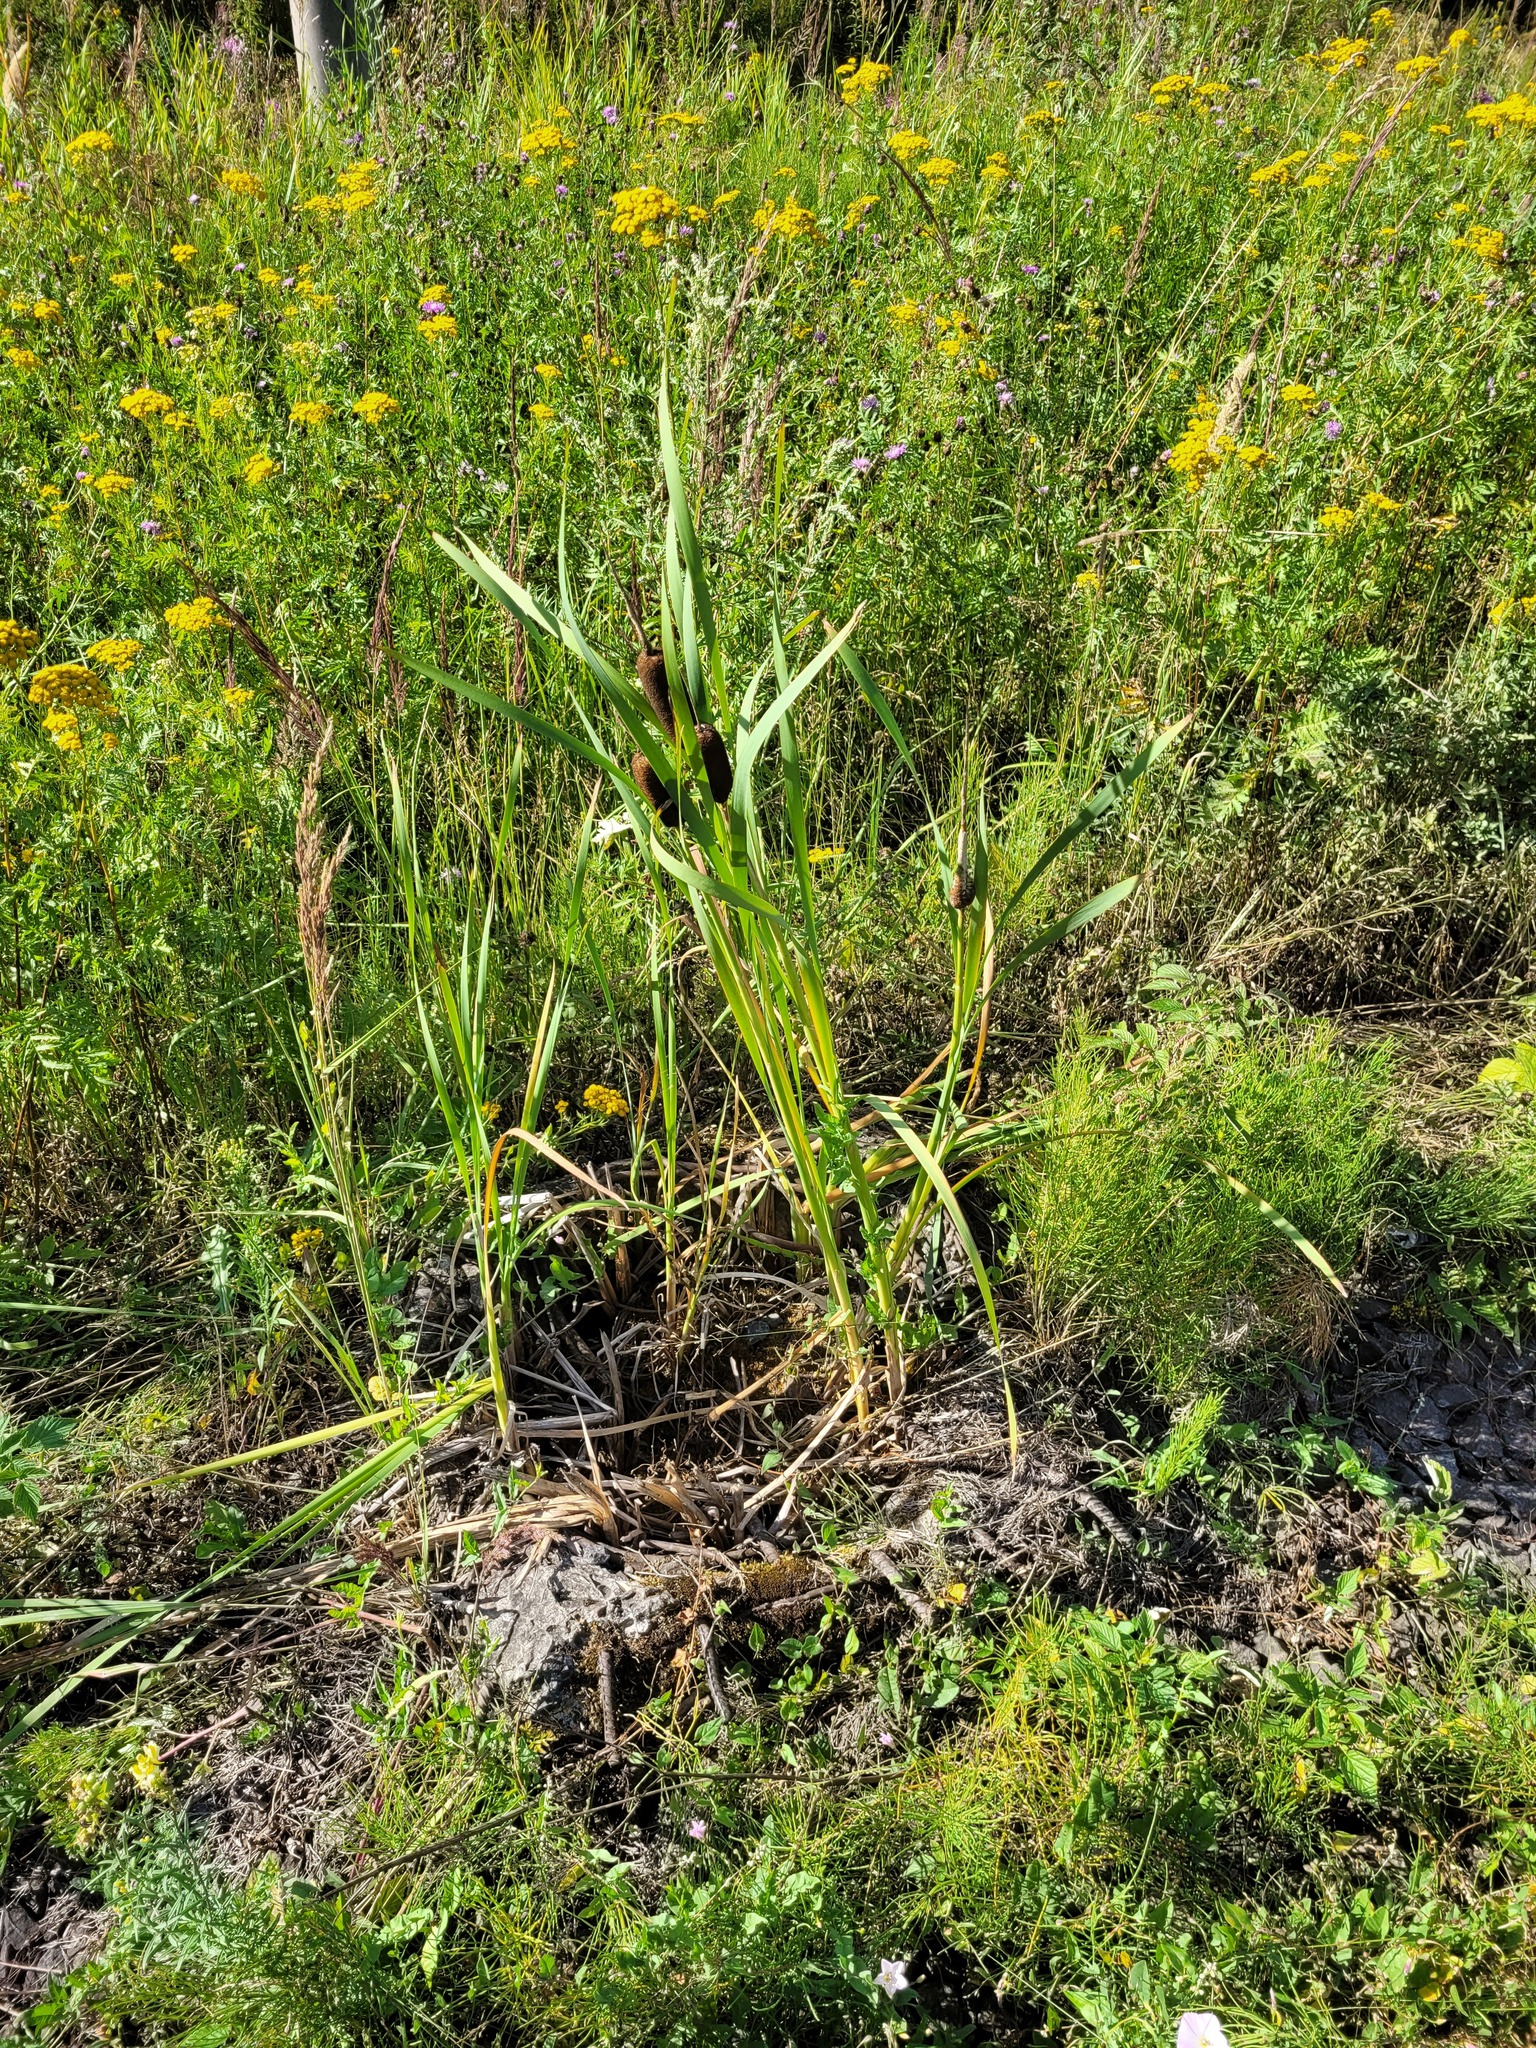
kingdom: Plantae
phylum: Tracheophyta
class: Liliopsida
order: Poales
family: Typhaceae
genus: Typha
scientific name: Typha latifolia
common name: Broadleaf cattail
